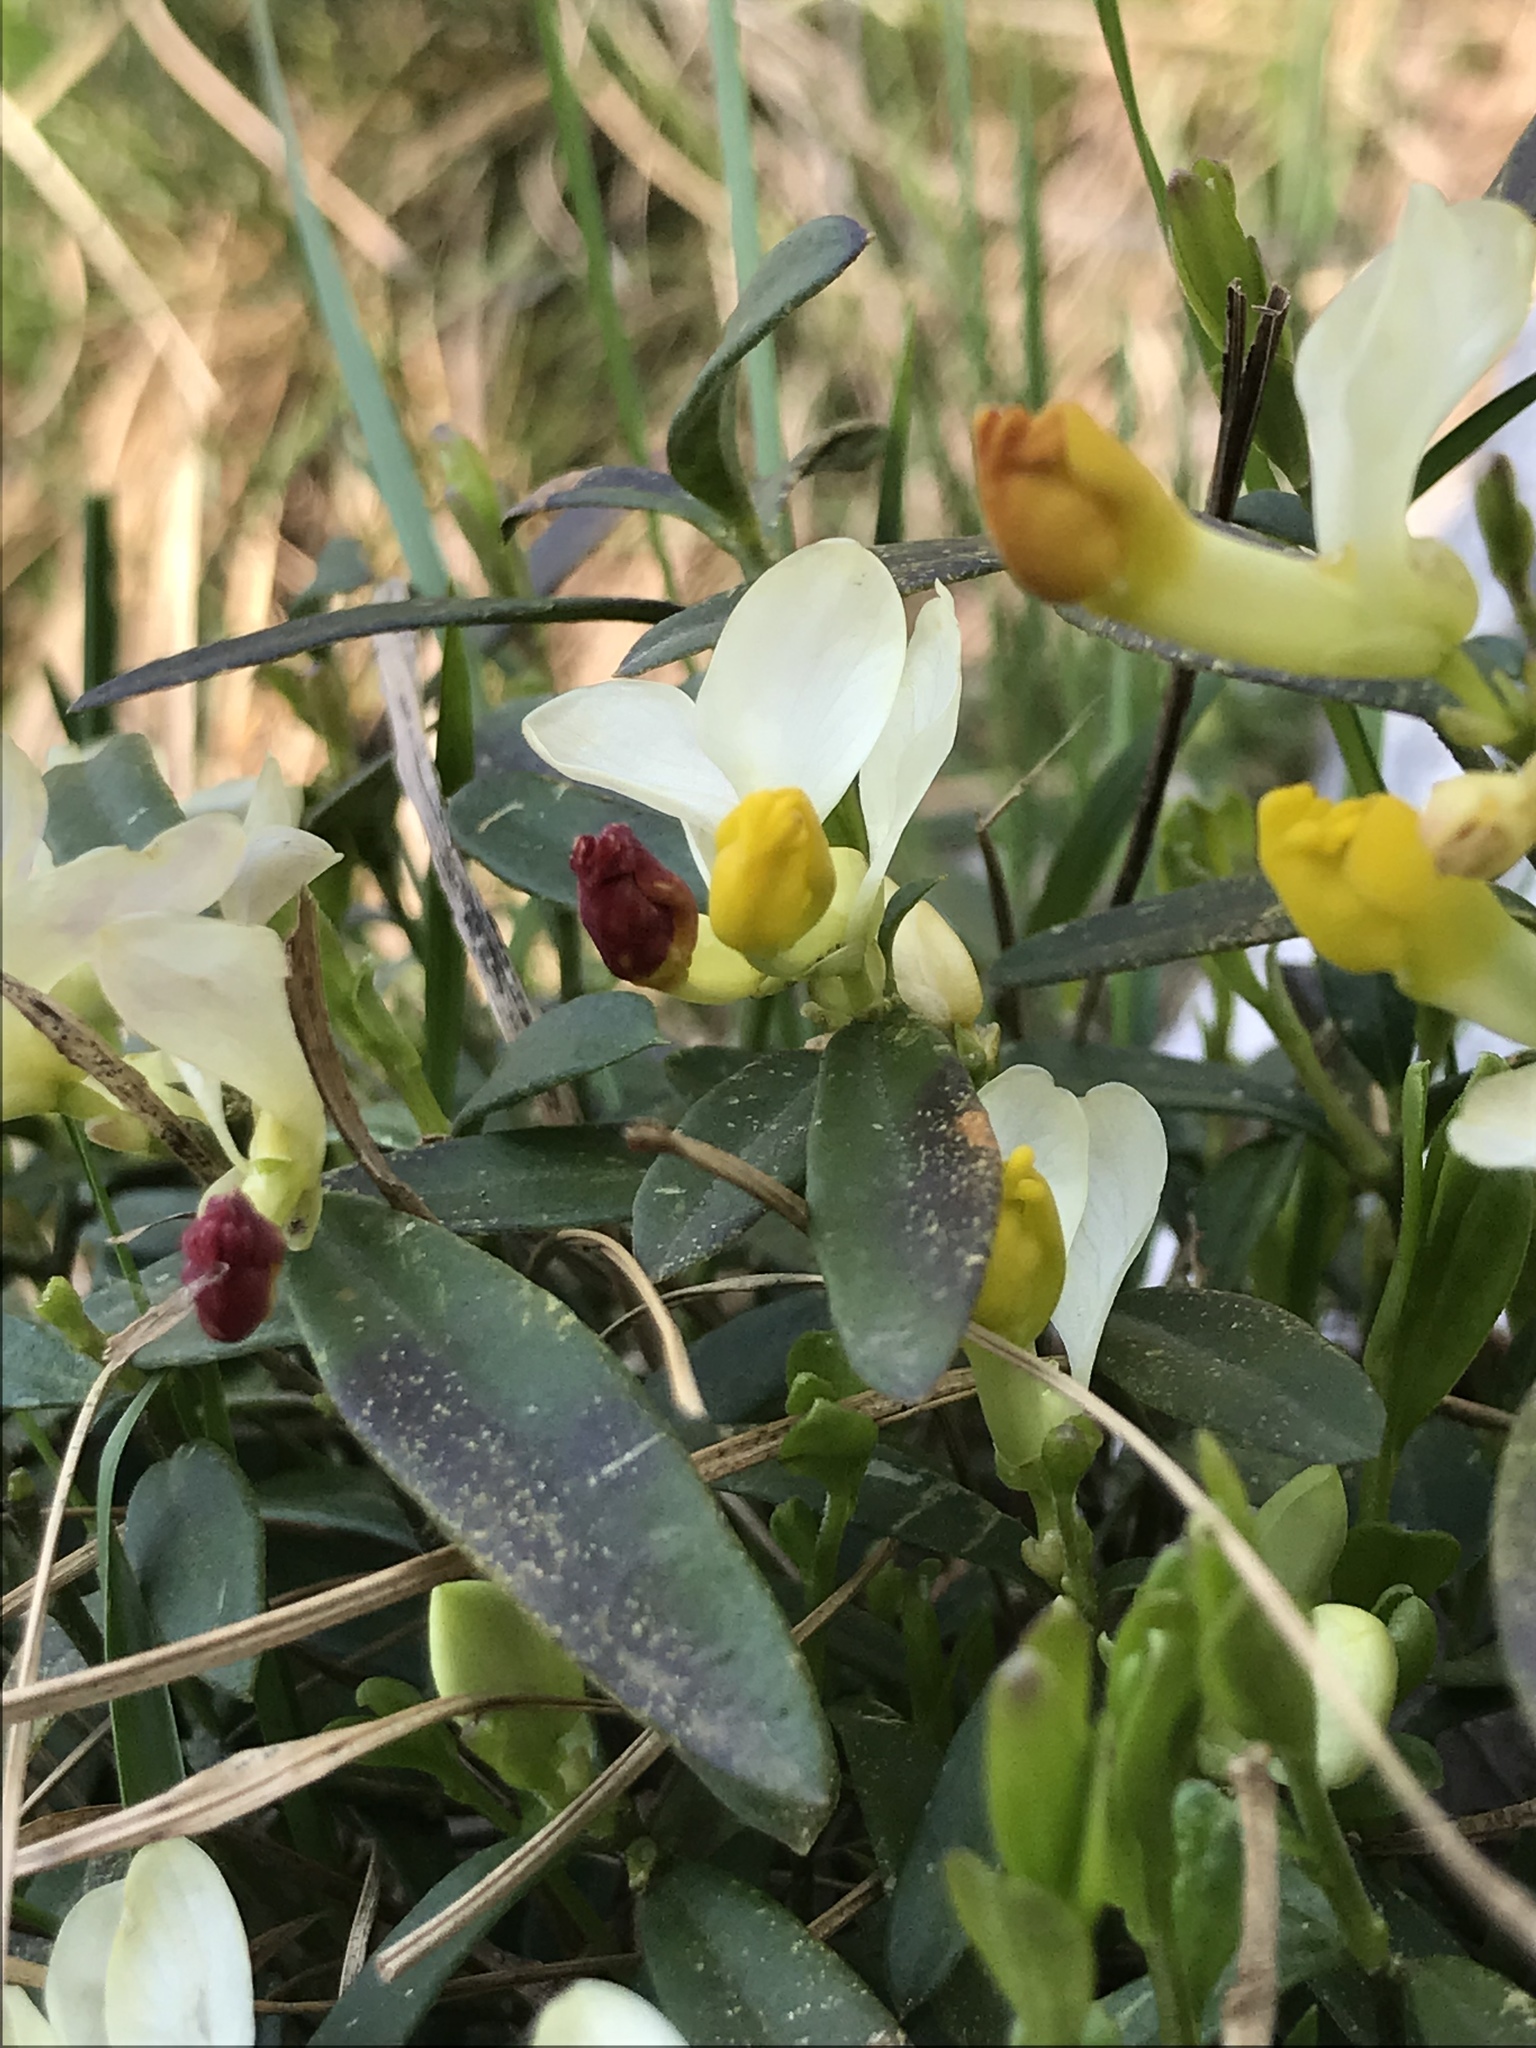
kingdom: Plantae
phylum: Tracheophyta
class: Magnoliopsida
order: Fabales
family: Polygalaceae
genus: Polygaloides
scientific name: Polygaloides chamaebuxus
